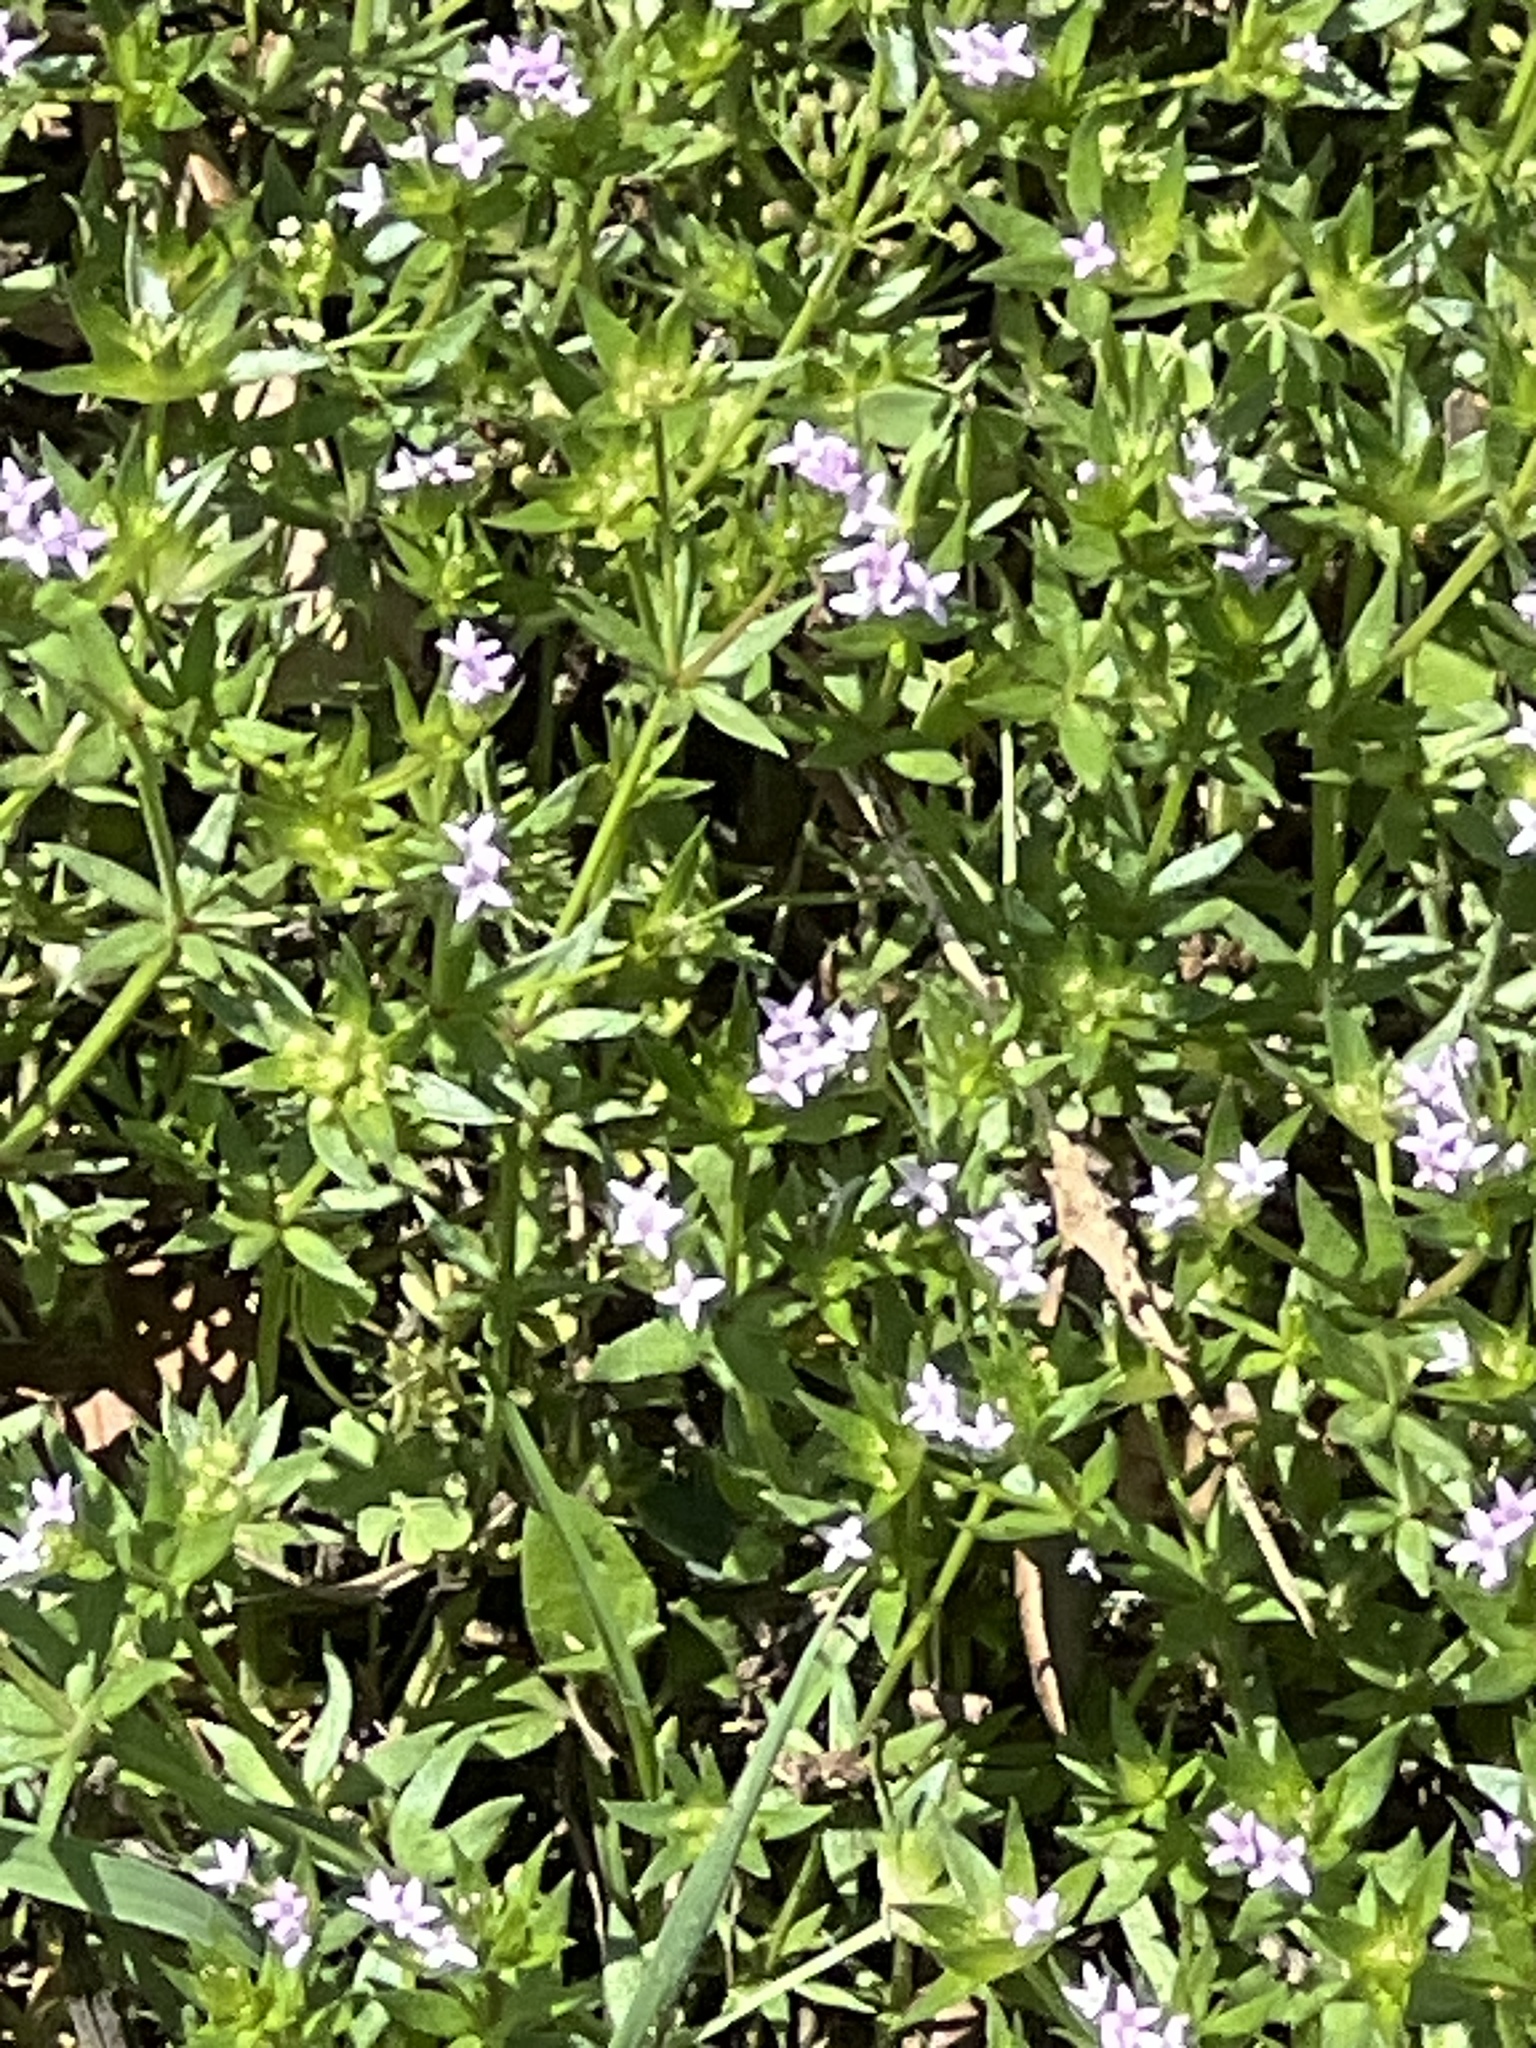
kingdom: Plantae
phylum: Tracheophyta
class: Magnoliopsida
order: Gentianales
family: Rubiaceae
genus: Sherardia
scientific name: Sherardia arvensis
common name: Field madder
